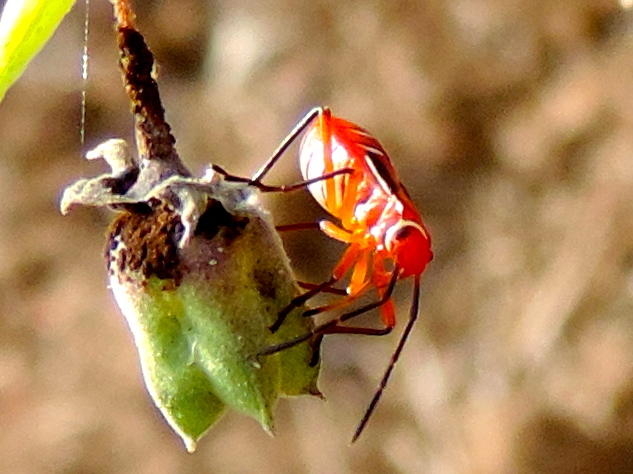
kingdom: Animalia
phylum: Arthropoda
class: Insecta
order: Hemiptera
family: Pyrrhocoridae
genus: Dysdercus
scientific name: Dysdercus
